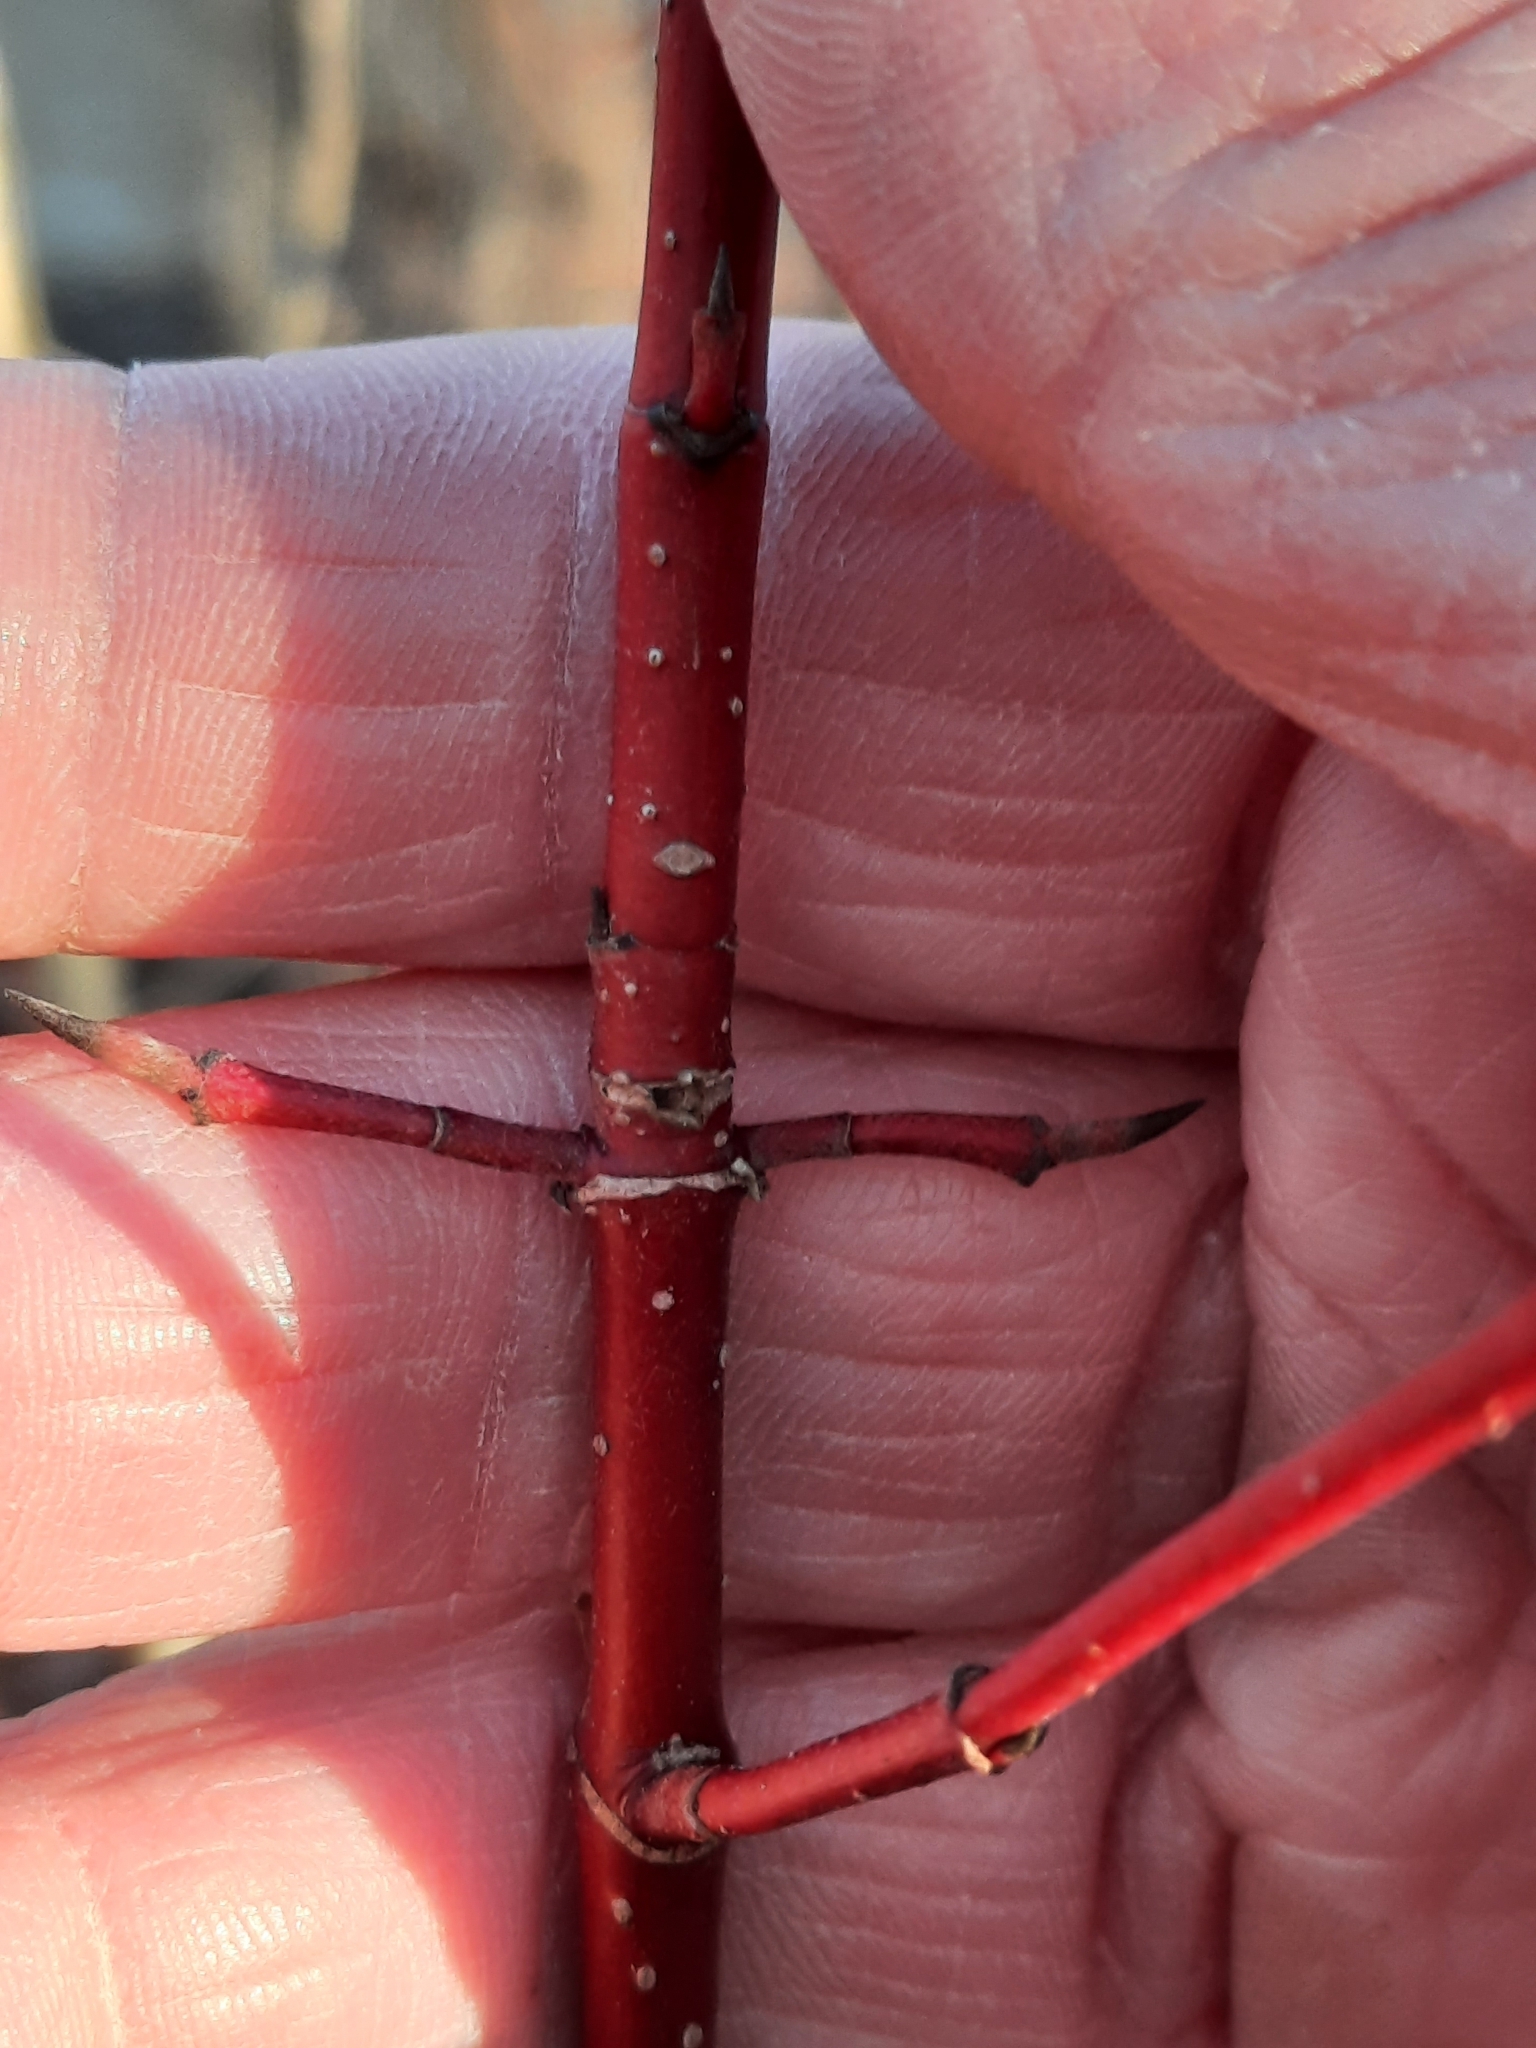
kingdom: Plantae
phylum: Tracheophyta
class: Magnoliopsida
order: Cornales
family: Cornaceae
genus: Cornus
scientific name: Cornus sericea
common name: Red-osier dogwood
